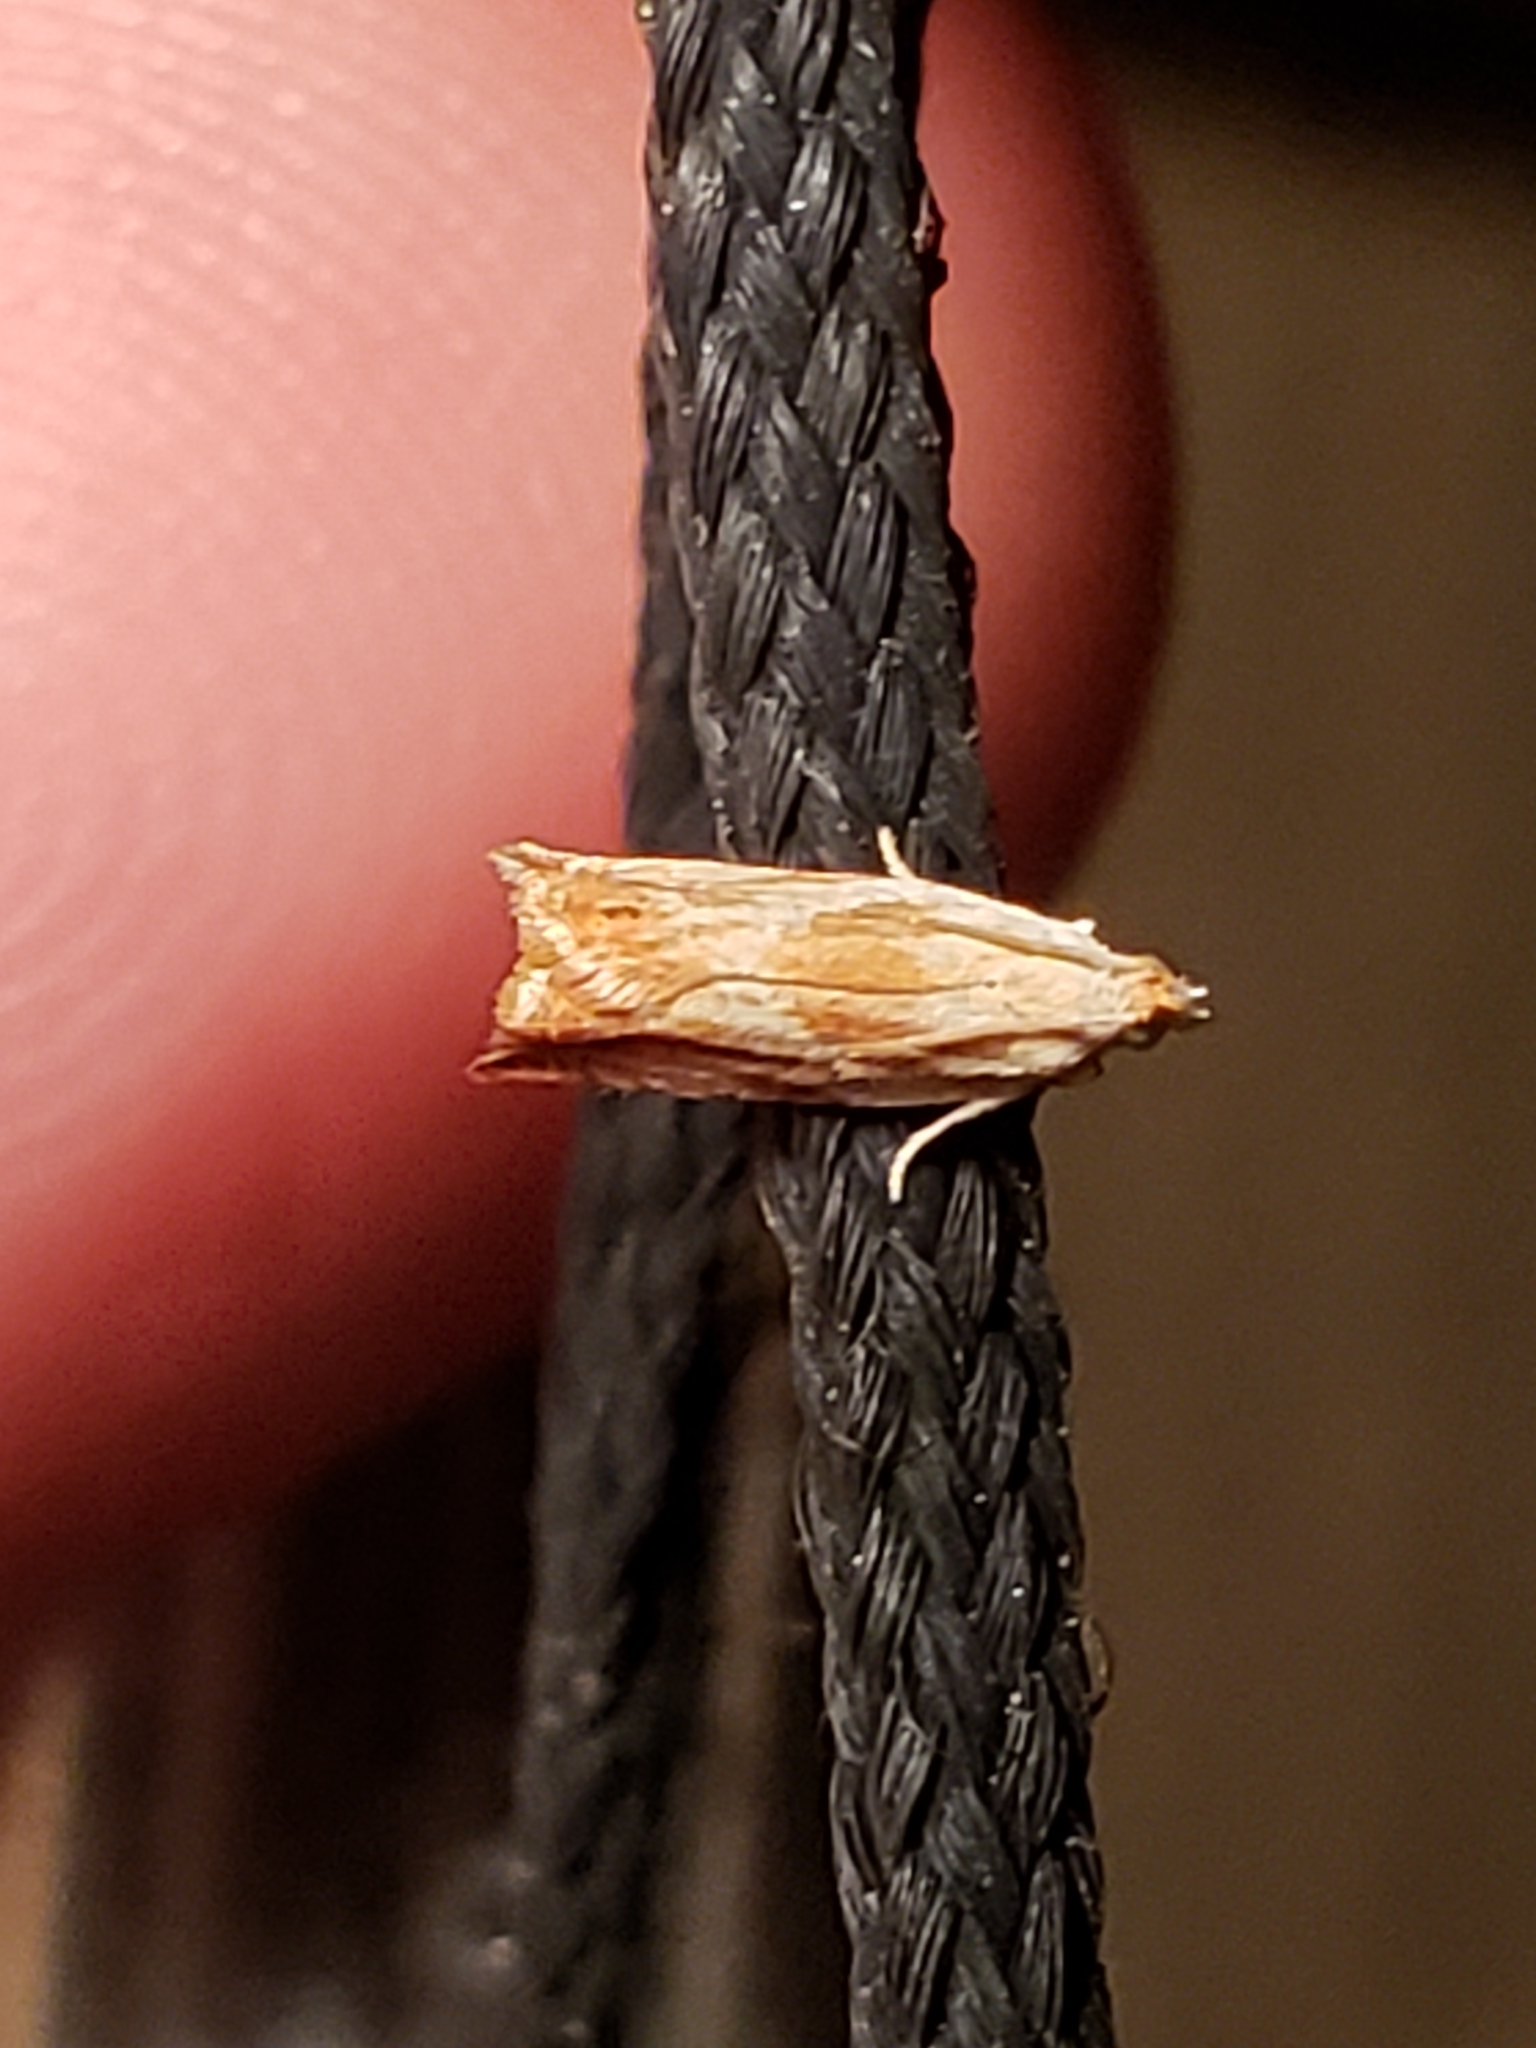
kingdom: Animalia
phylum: Arthropoda
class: Insecta
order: Lepidoptera
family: Tortricidae
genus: Ancylis
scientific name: Ancylis platanana
